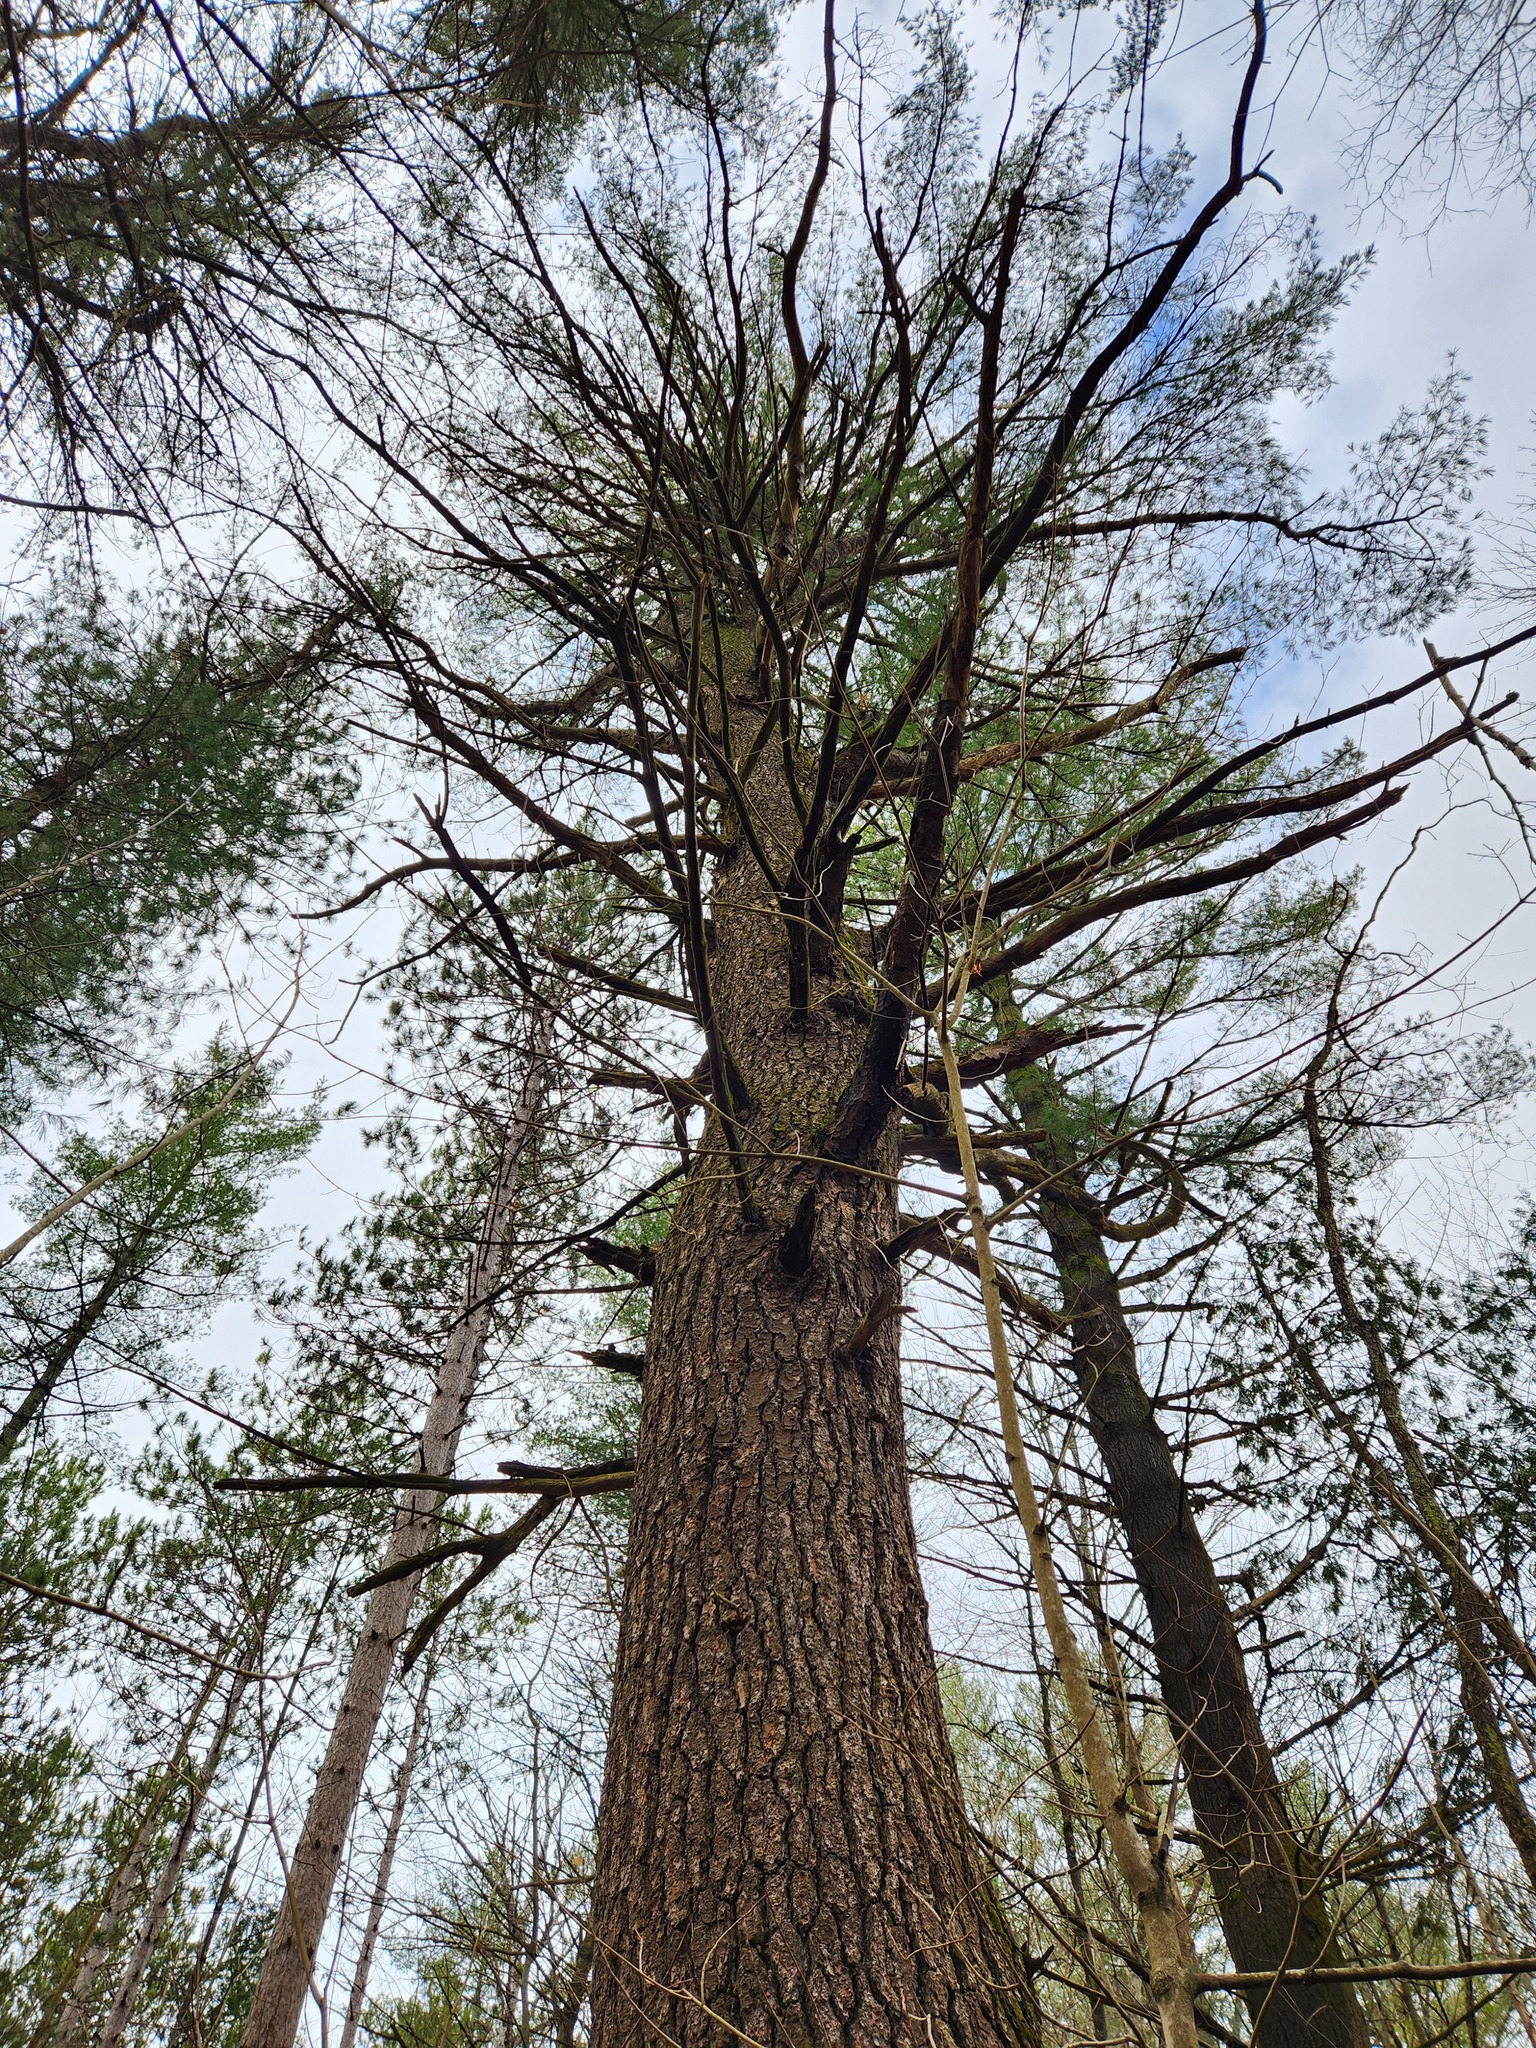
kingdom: Plantae
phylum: Tracheophyta
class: Pinopsida
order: Pinales
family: Pinaceae
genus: Pinus
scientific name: Pinus strobus
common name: Weymouth pine
